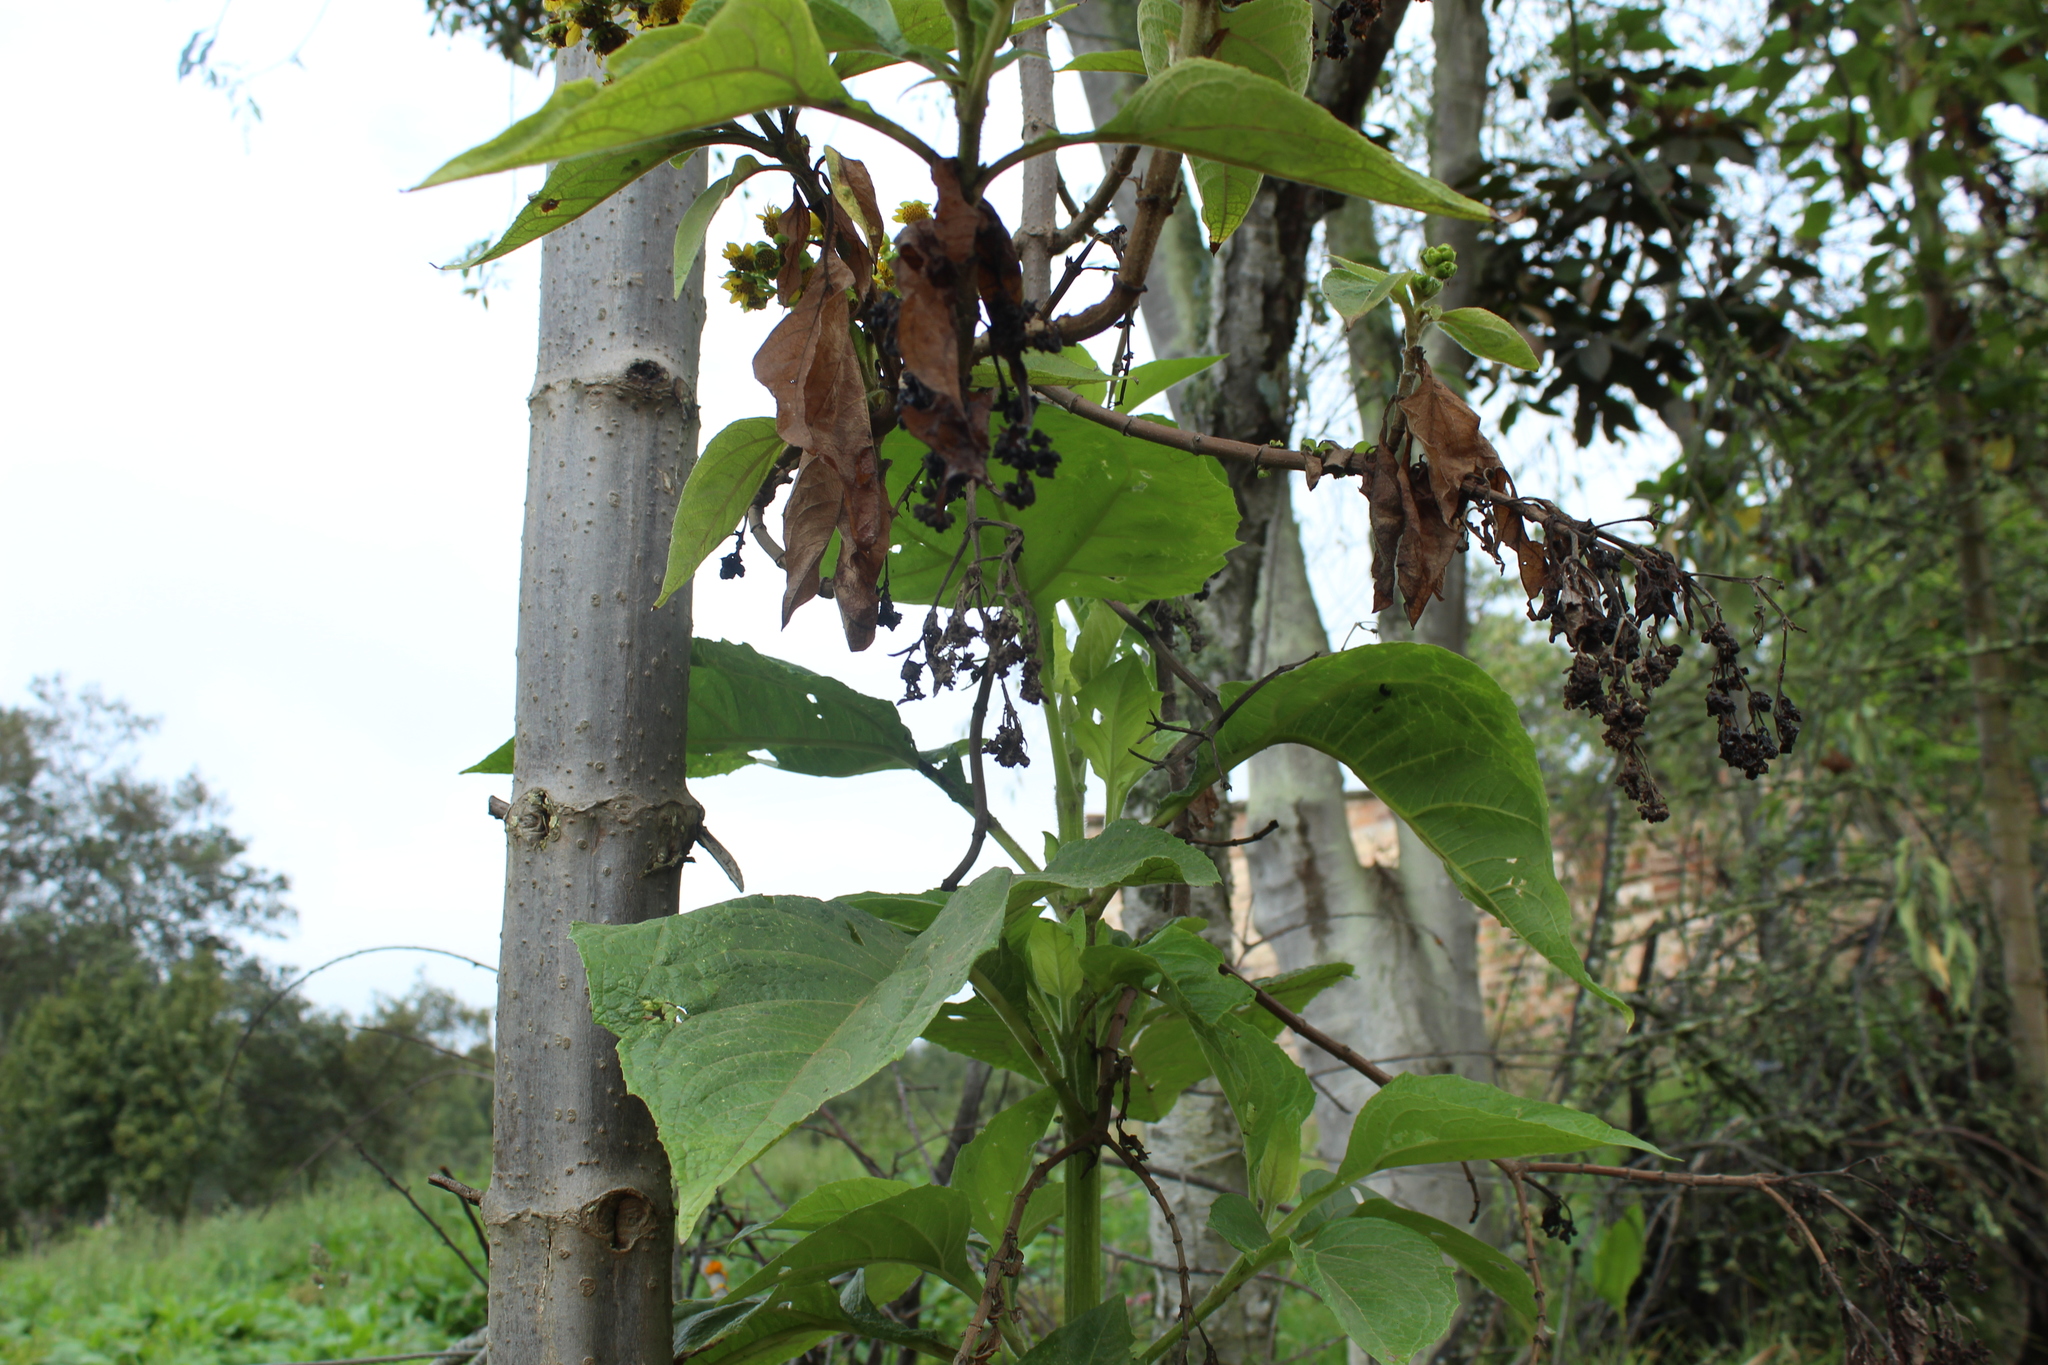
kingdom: Plantae
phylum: Tracheophyta
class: Magnoliopsida
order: Asterales
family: Asteraceae
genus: Smallanthus
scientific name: Smallanthus pyramidalis
